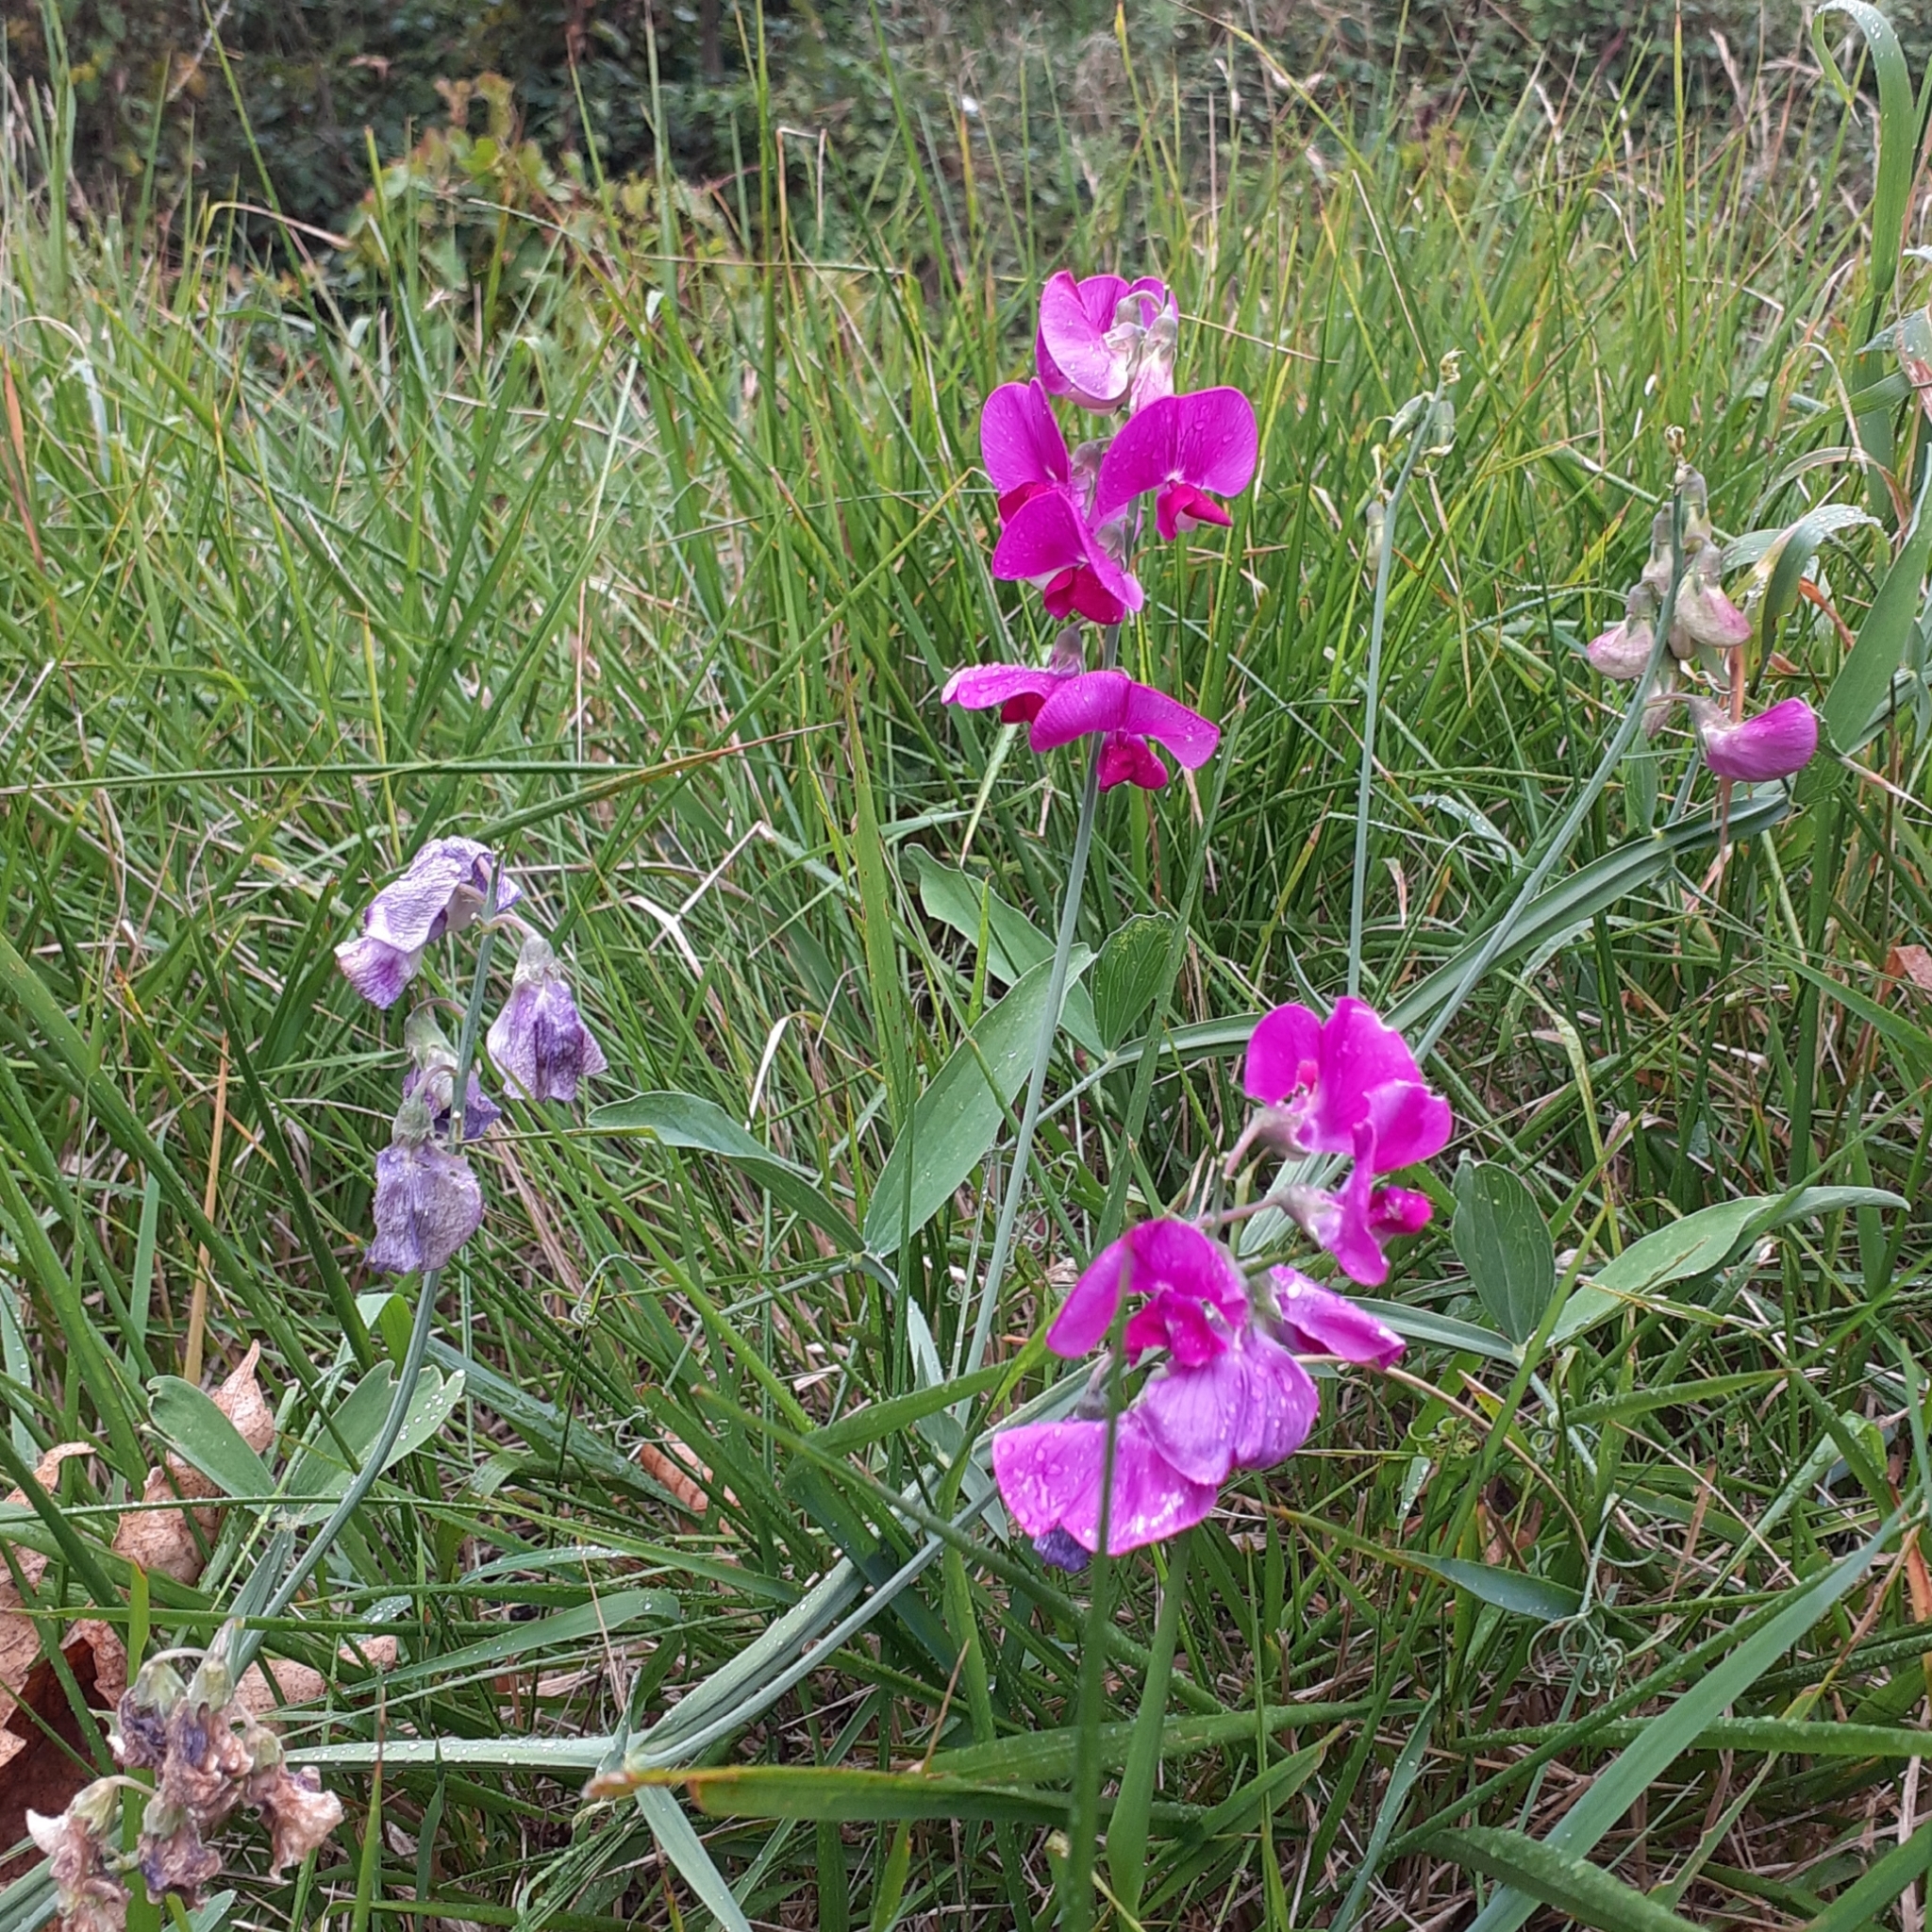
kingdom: Plantae
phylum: Tracheophyta
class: Magnoliopsida
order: Fabales
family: Fabaceae
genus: Lathyrus
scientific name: Lathyrus latifolius
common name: Perennial pea
